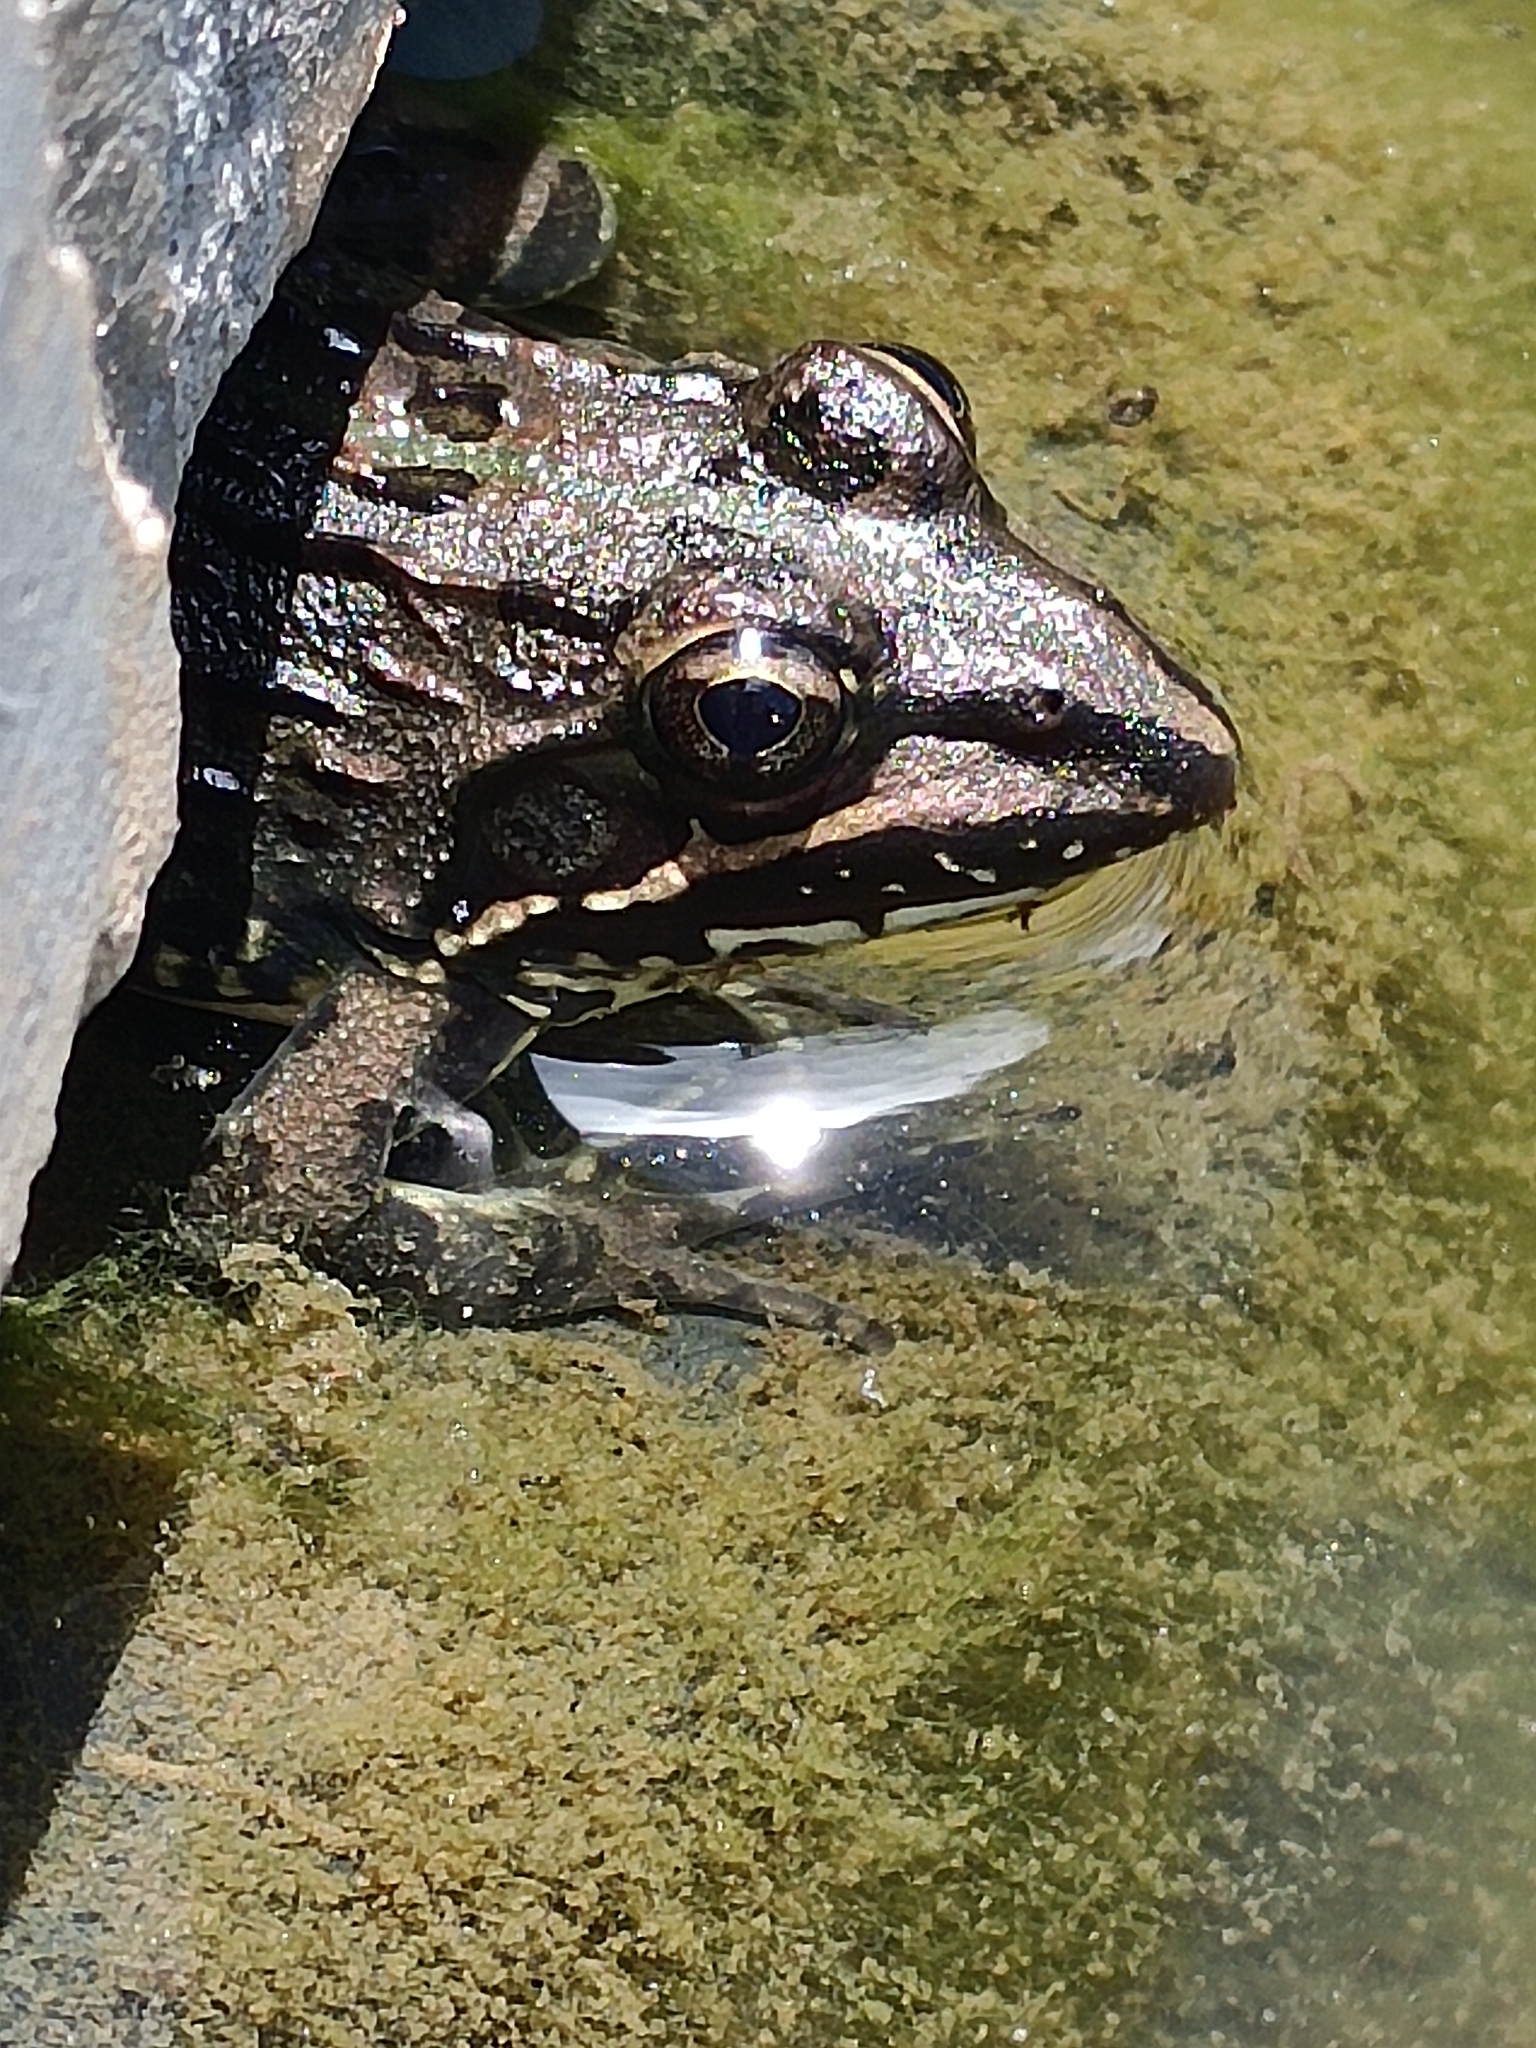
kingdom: Animalia
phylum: Chordata
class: Amphibia
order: Anura
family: Pyxicephalidae
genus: Amietia
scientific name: Amietia delalandii
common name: Delalande's river frog
